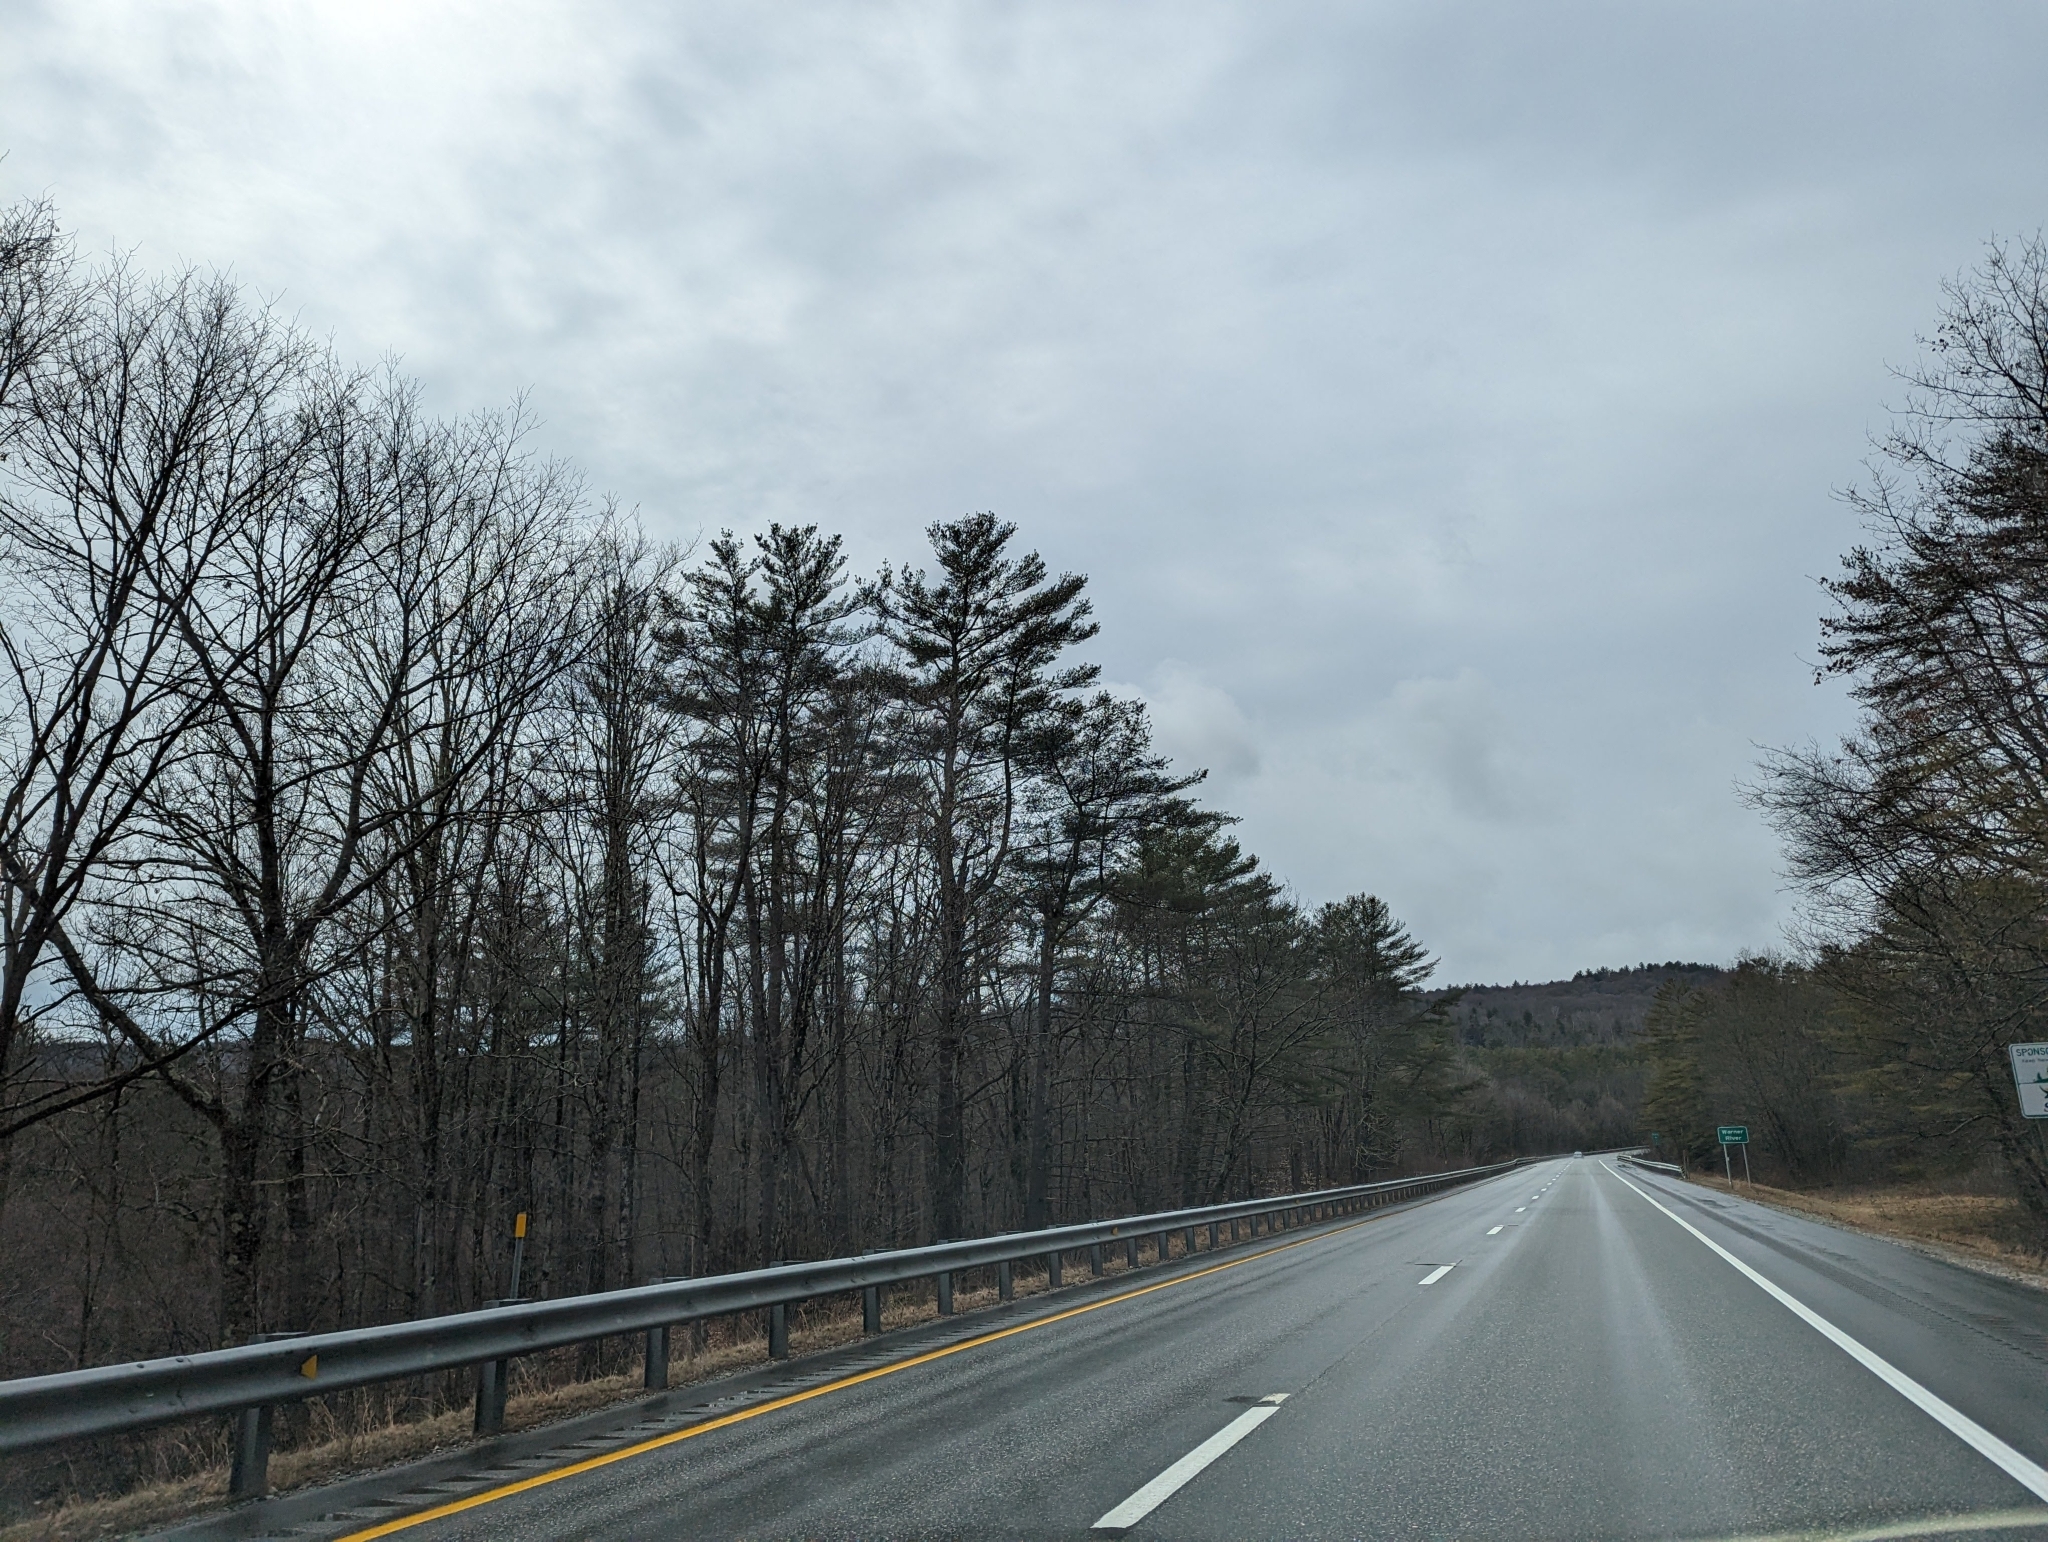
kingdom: Plantae
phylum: Tracheophyta
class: Pinopsida
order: Pinales
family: Pinaceae
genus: Pinus
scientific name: Pinus strobus
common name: Weymouth pine
